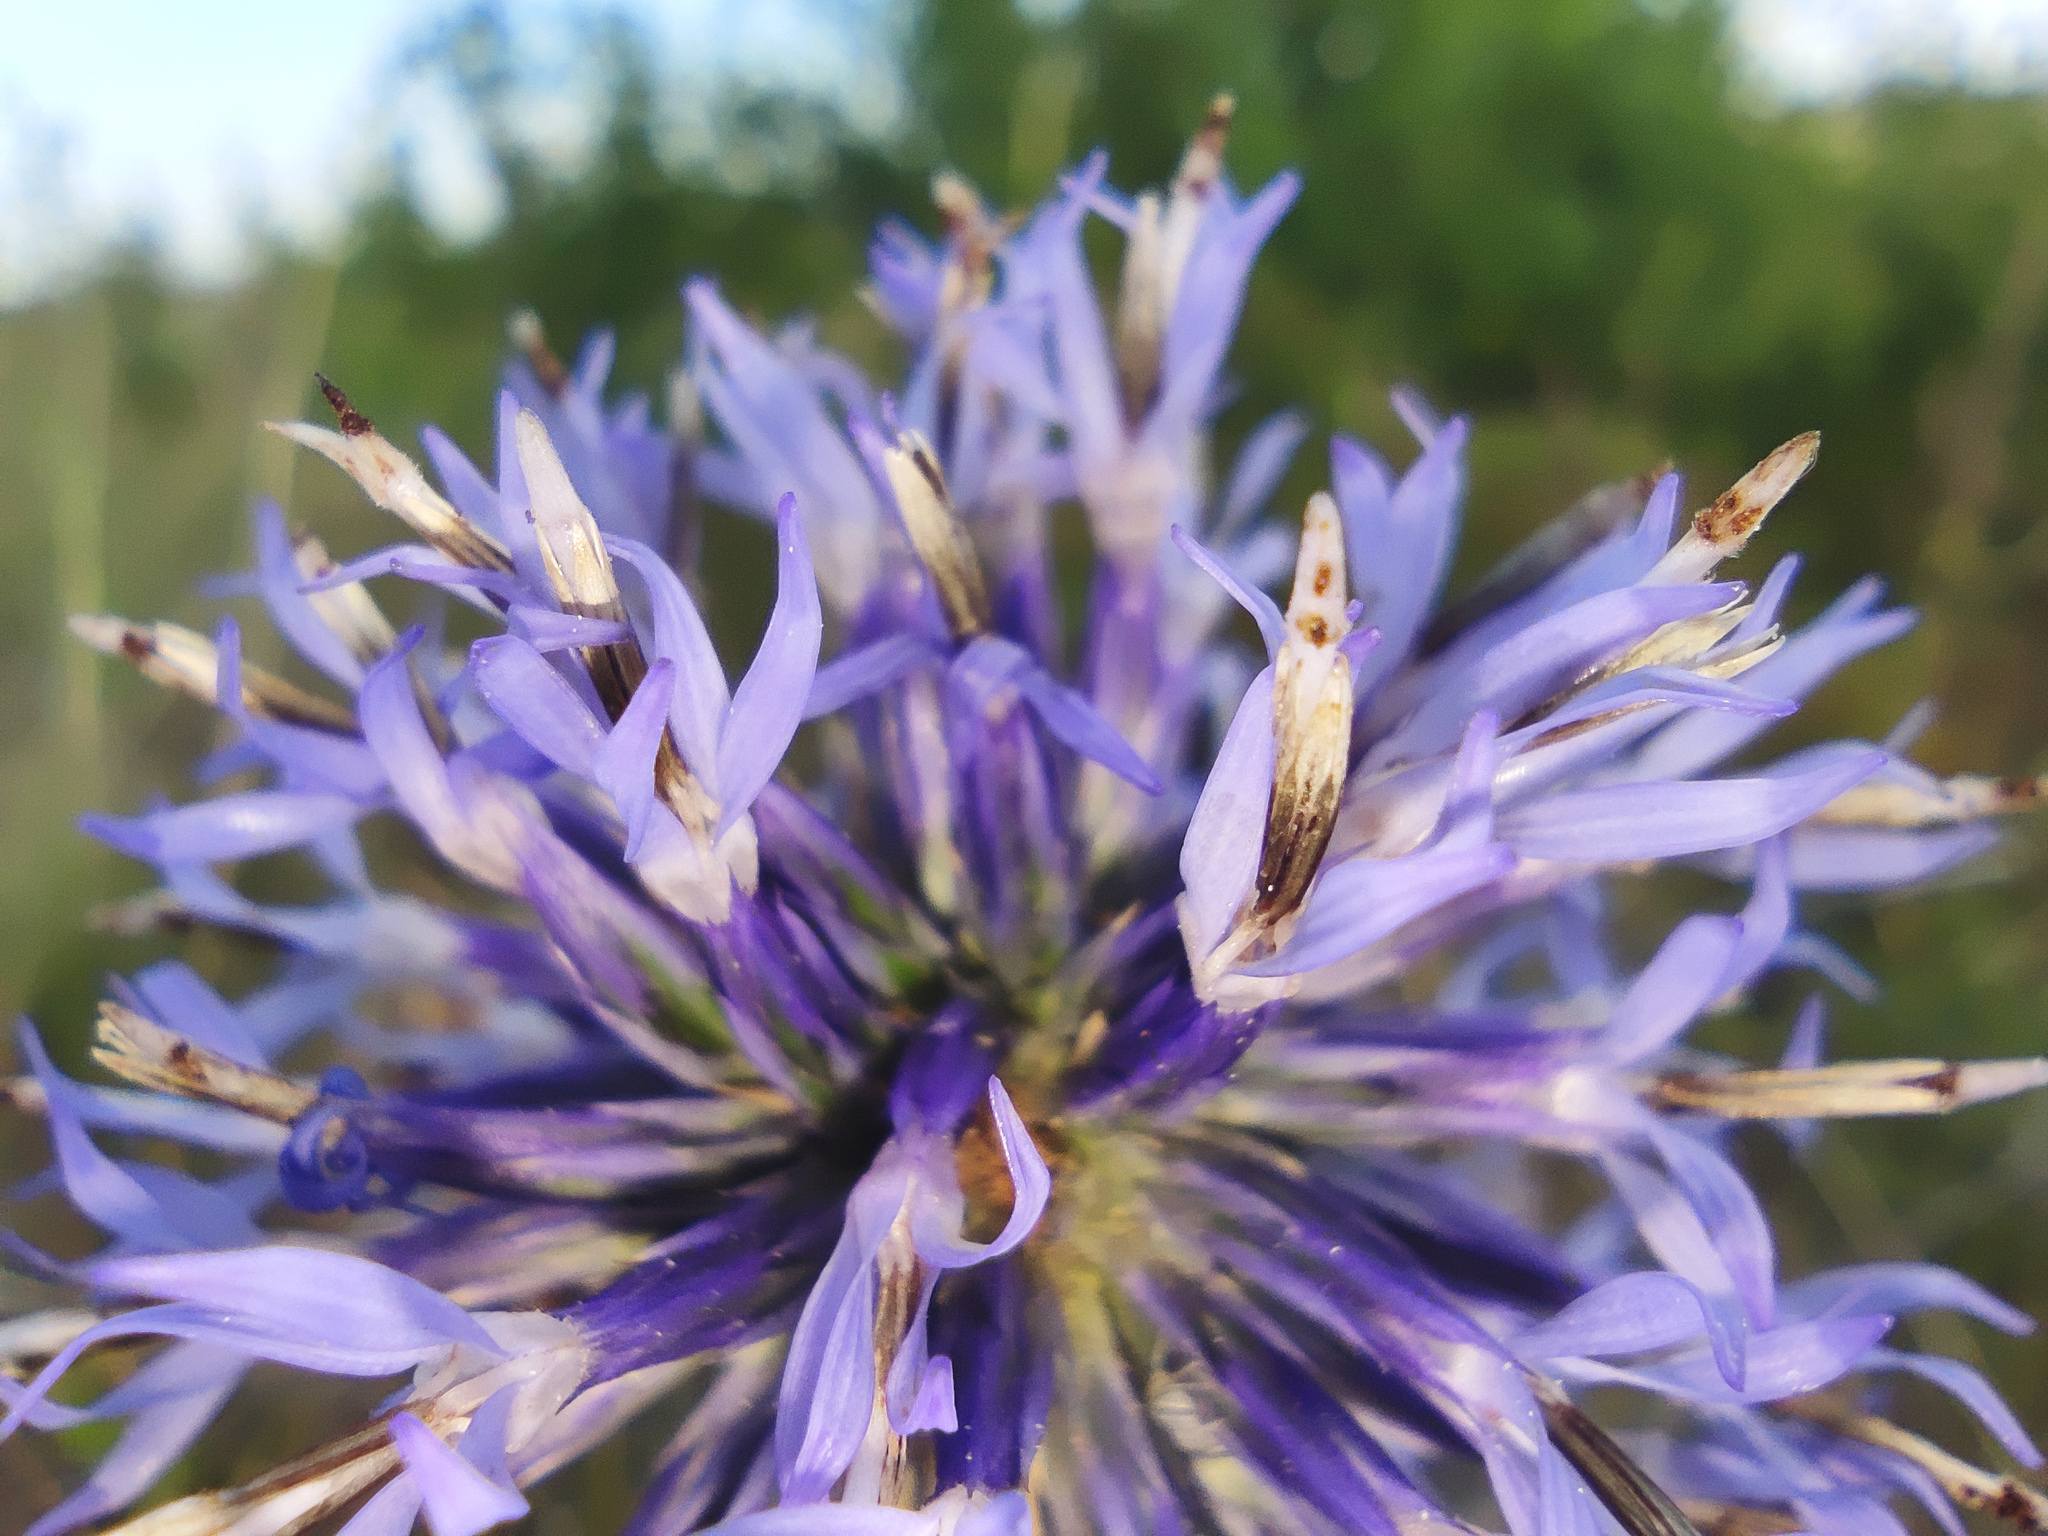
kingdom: Plantae
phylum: Tracheophyta
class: Magnoliopsida
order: Asterales
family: Asteraceae
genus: Echinops
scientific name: Echinops ritro
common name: Globe thistle
